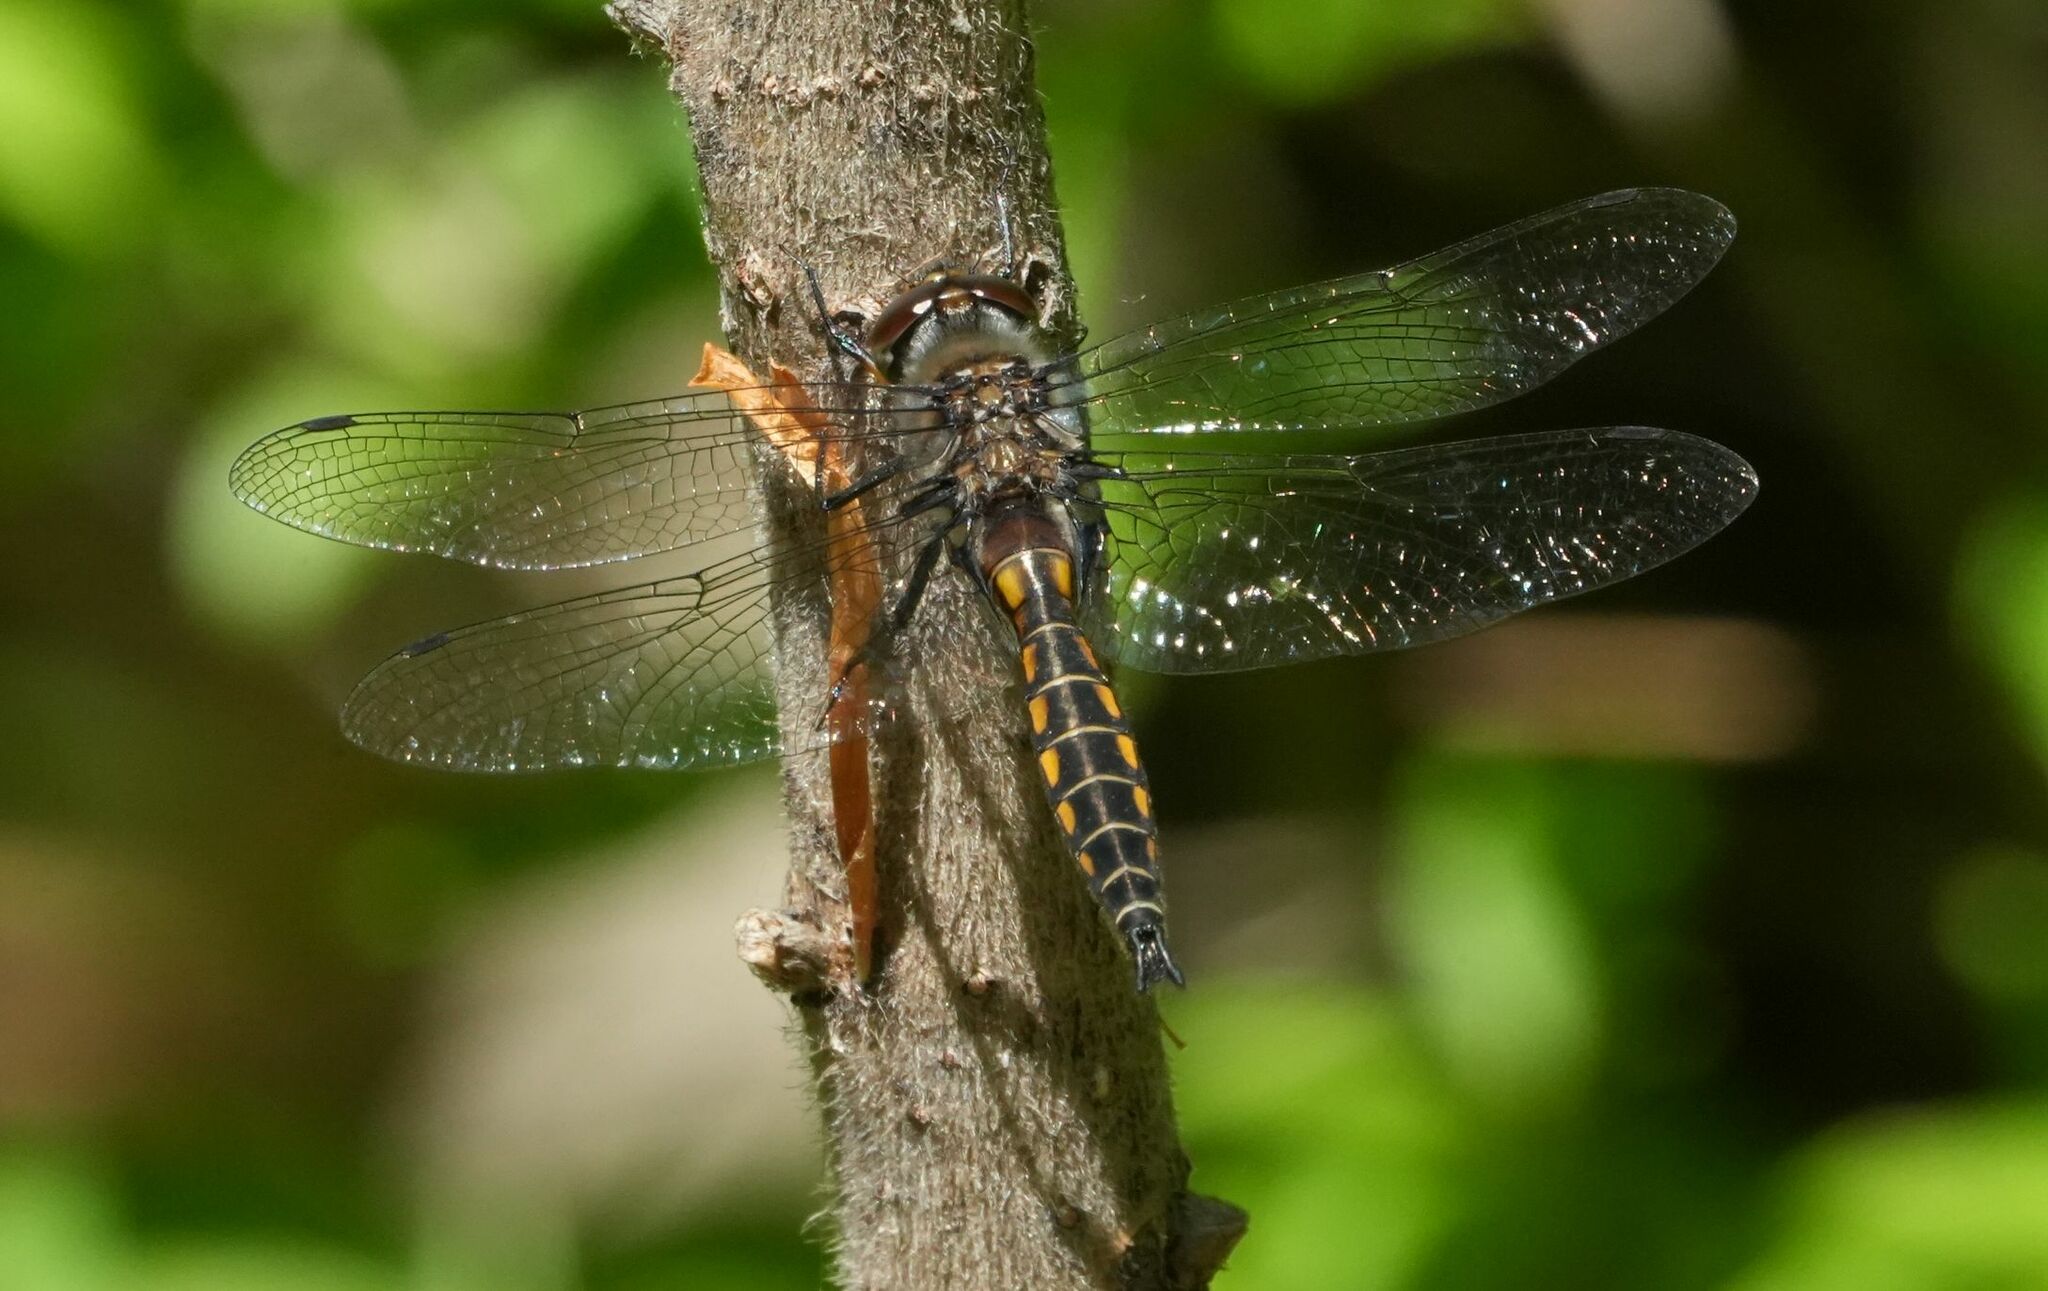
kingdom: Animalia
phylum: Arthropoda
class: Insecta
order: Odonata
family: Corduliidae
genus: Epitheca
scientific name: Epitheca spinigera
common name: Spiny baskettail
